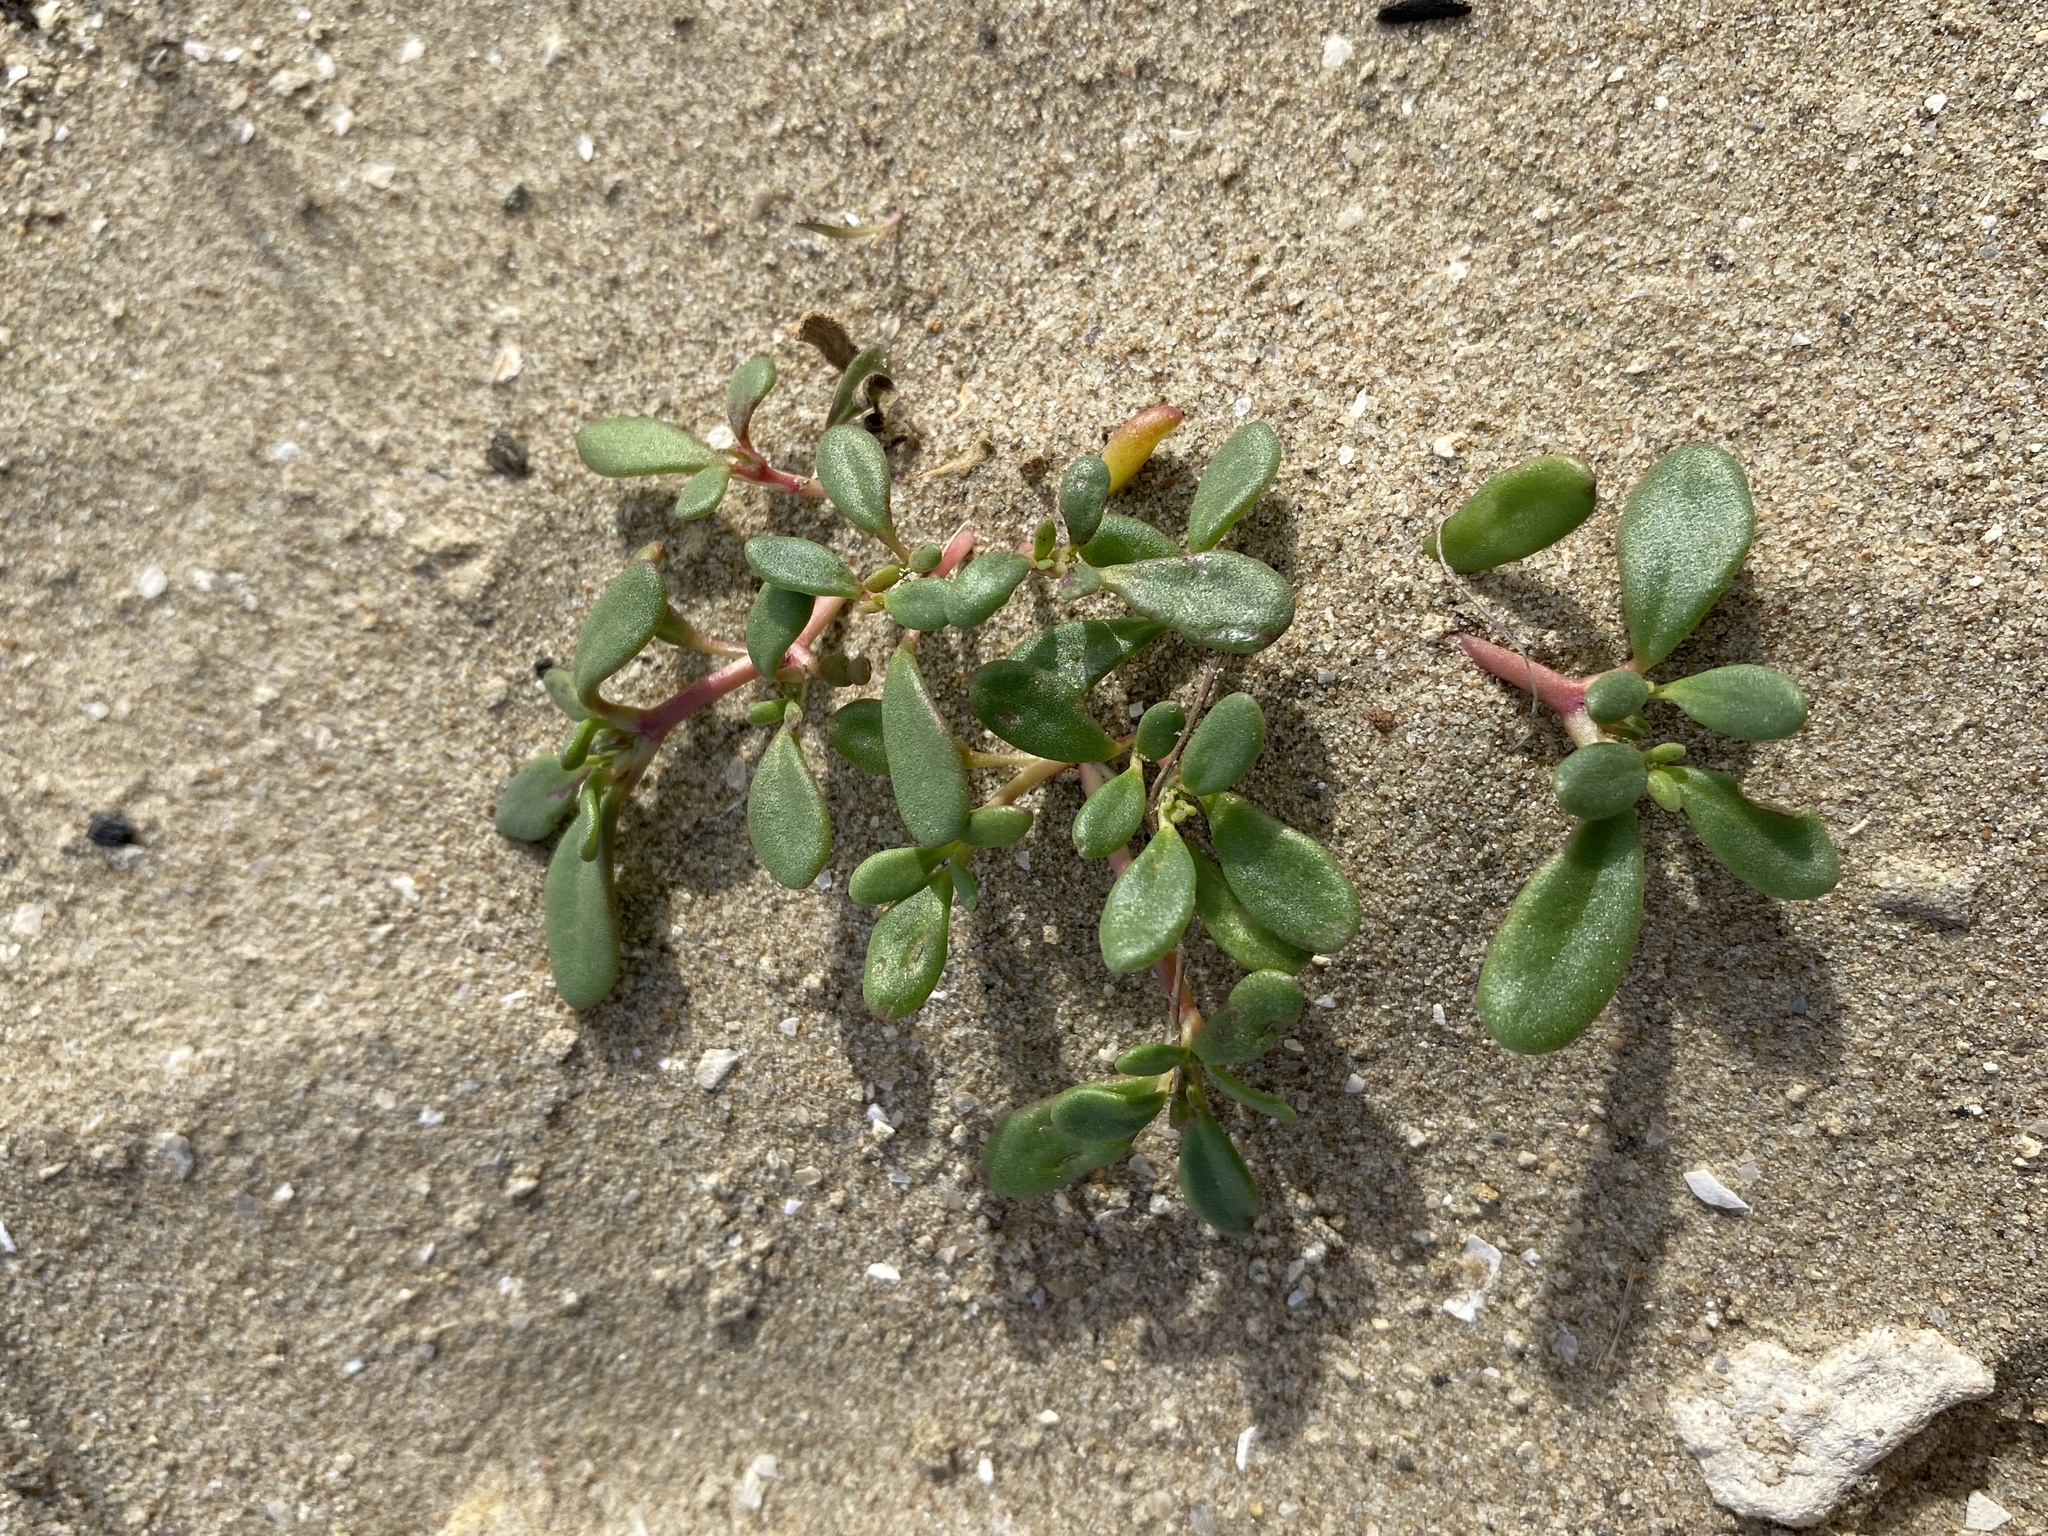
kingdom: Plantae
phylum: Tracheophyta
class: Magnoliopsida
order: Caryophyllales
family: Aizoaceae
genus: Sesuvium
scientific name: Sesuvium portulacastrum
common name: Sea-purslane
